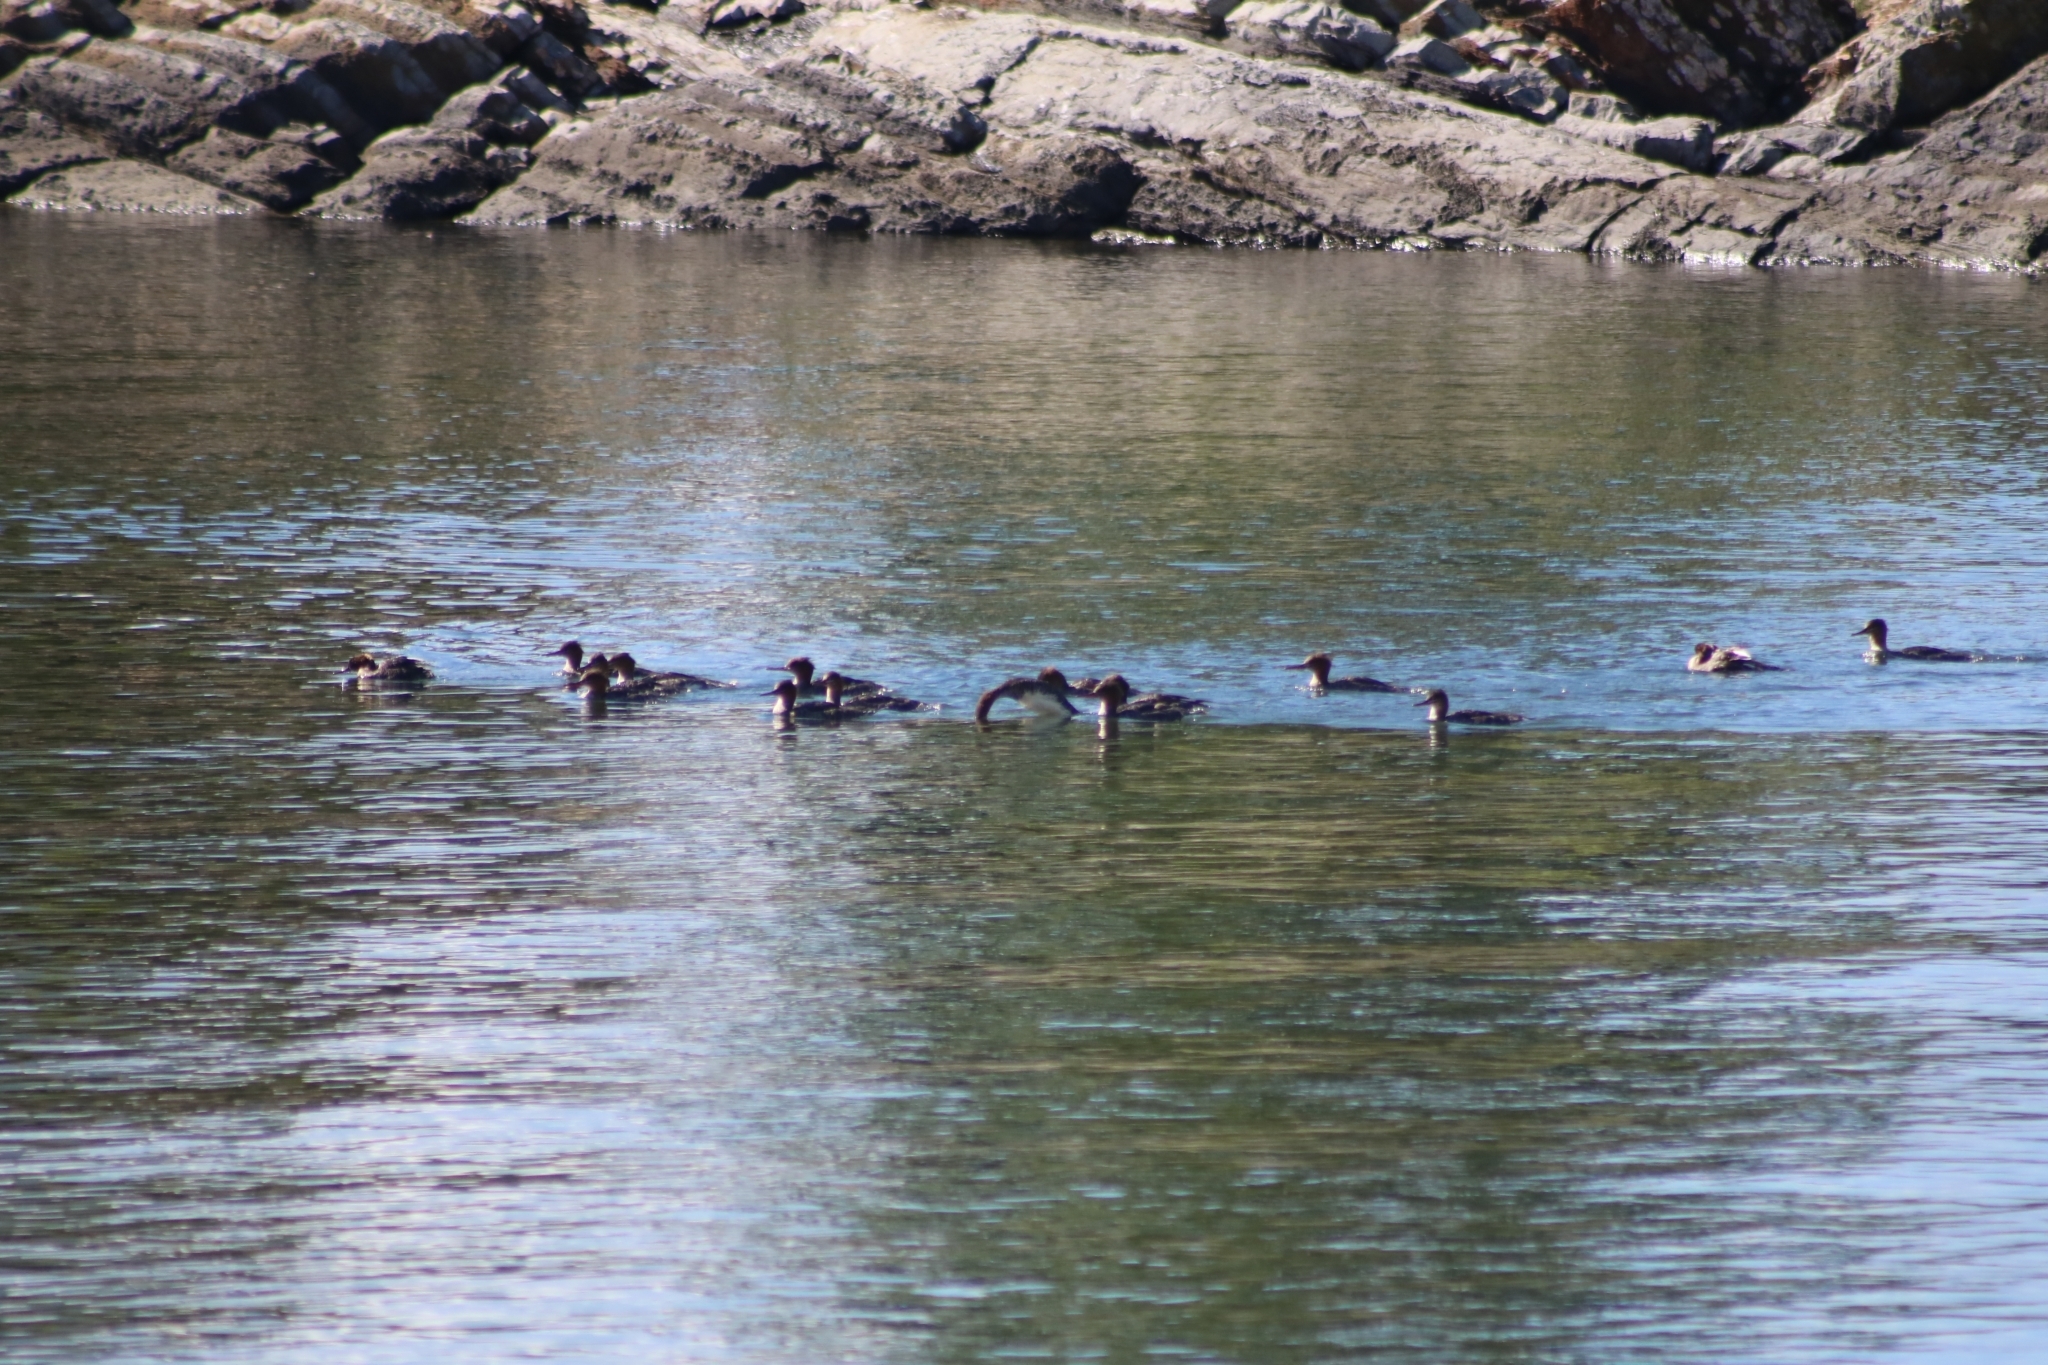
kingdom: Animalia
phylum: Chordata
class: Aves
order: Anseriformes
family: Anatidae
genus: Mergus
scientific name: Mergus serrator
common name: Red-breasted merganser
